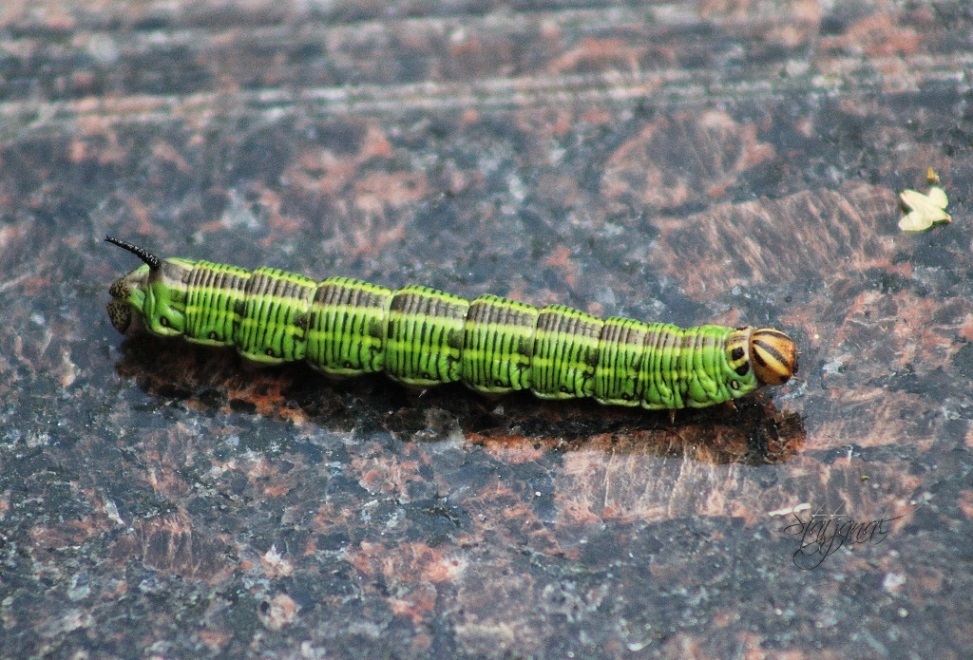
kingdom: Animalia
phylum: Arthropoda
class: Insecta
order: Lepidoptera
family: Sphingidae
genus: Sphinx
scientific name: Sphinx morio
